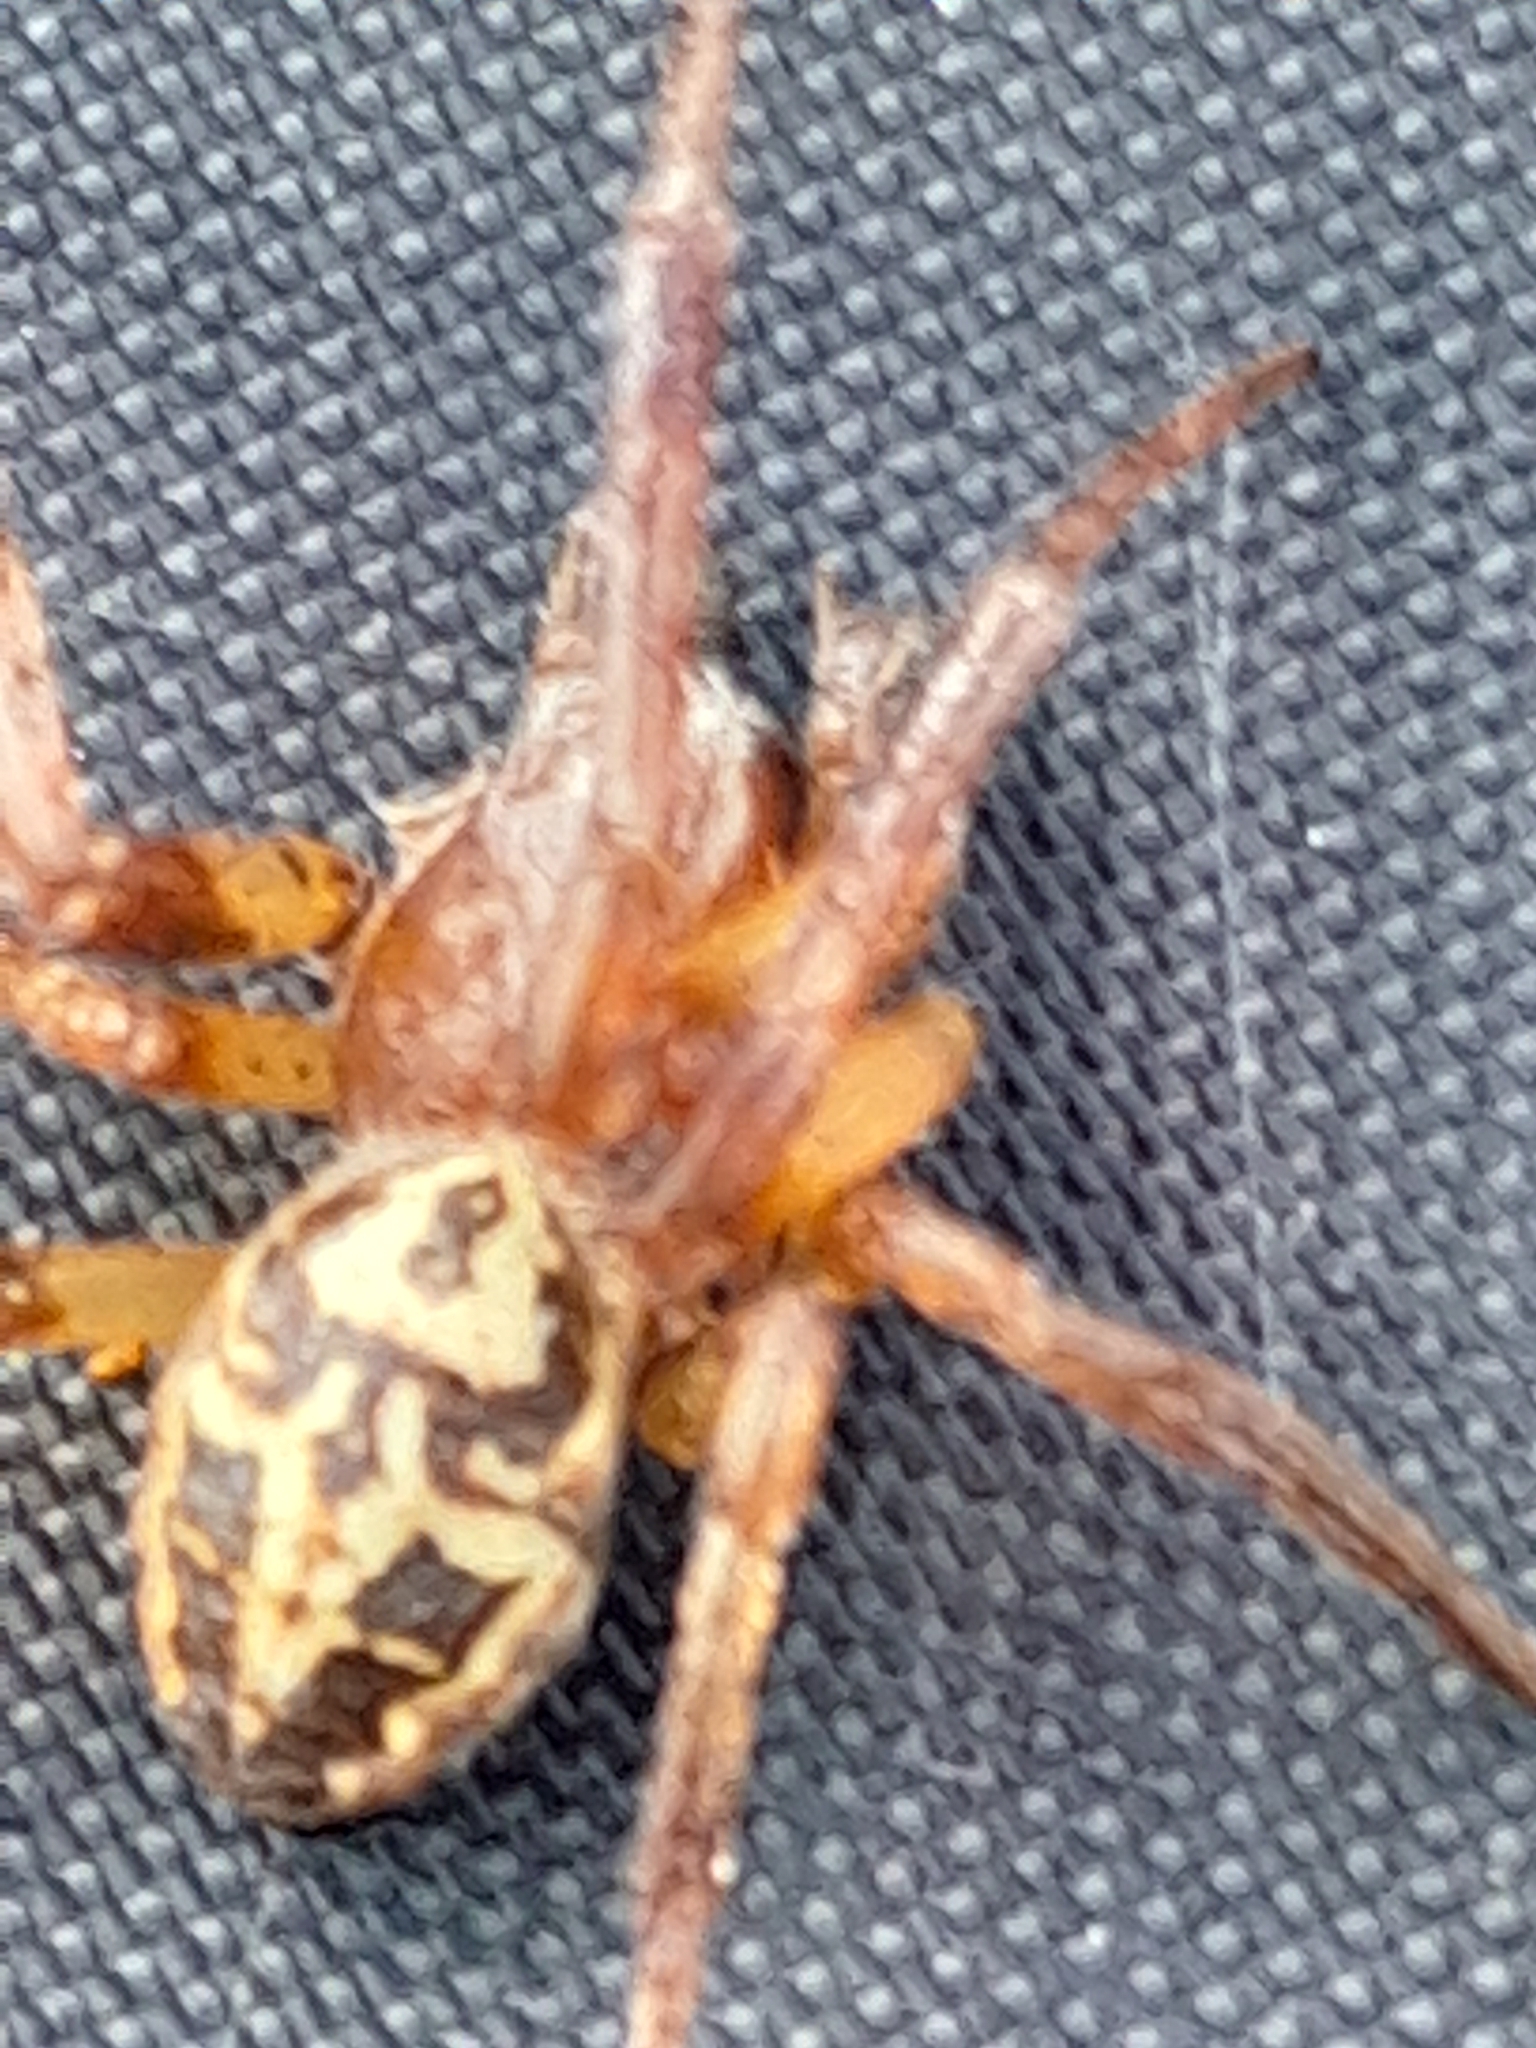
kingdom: Animalia
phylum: Arthropoda
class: Arachnida
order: Araneae
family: Araneidae
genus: Larinioides
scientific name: Larinioides cornutus
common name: Furrow orbweaver
